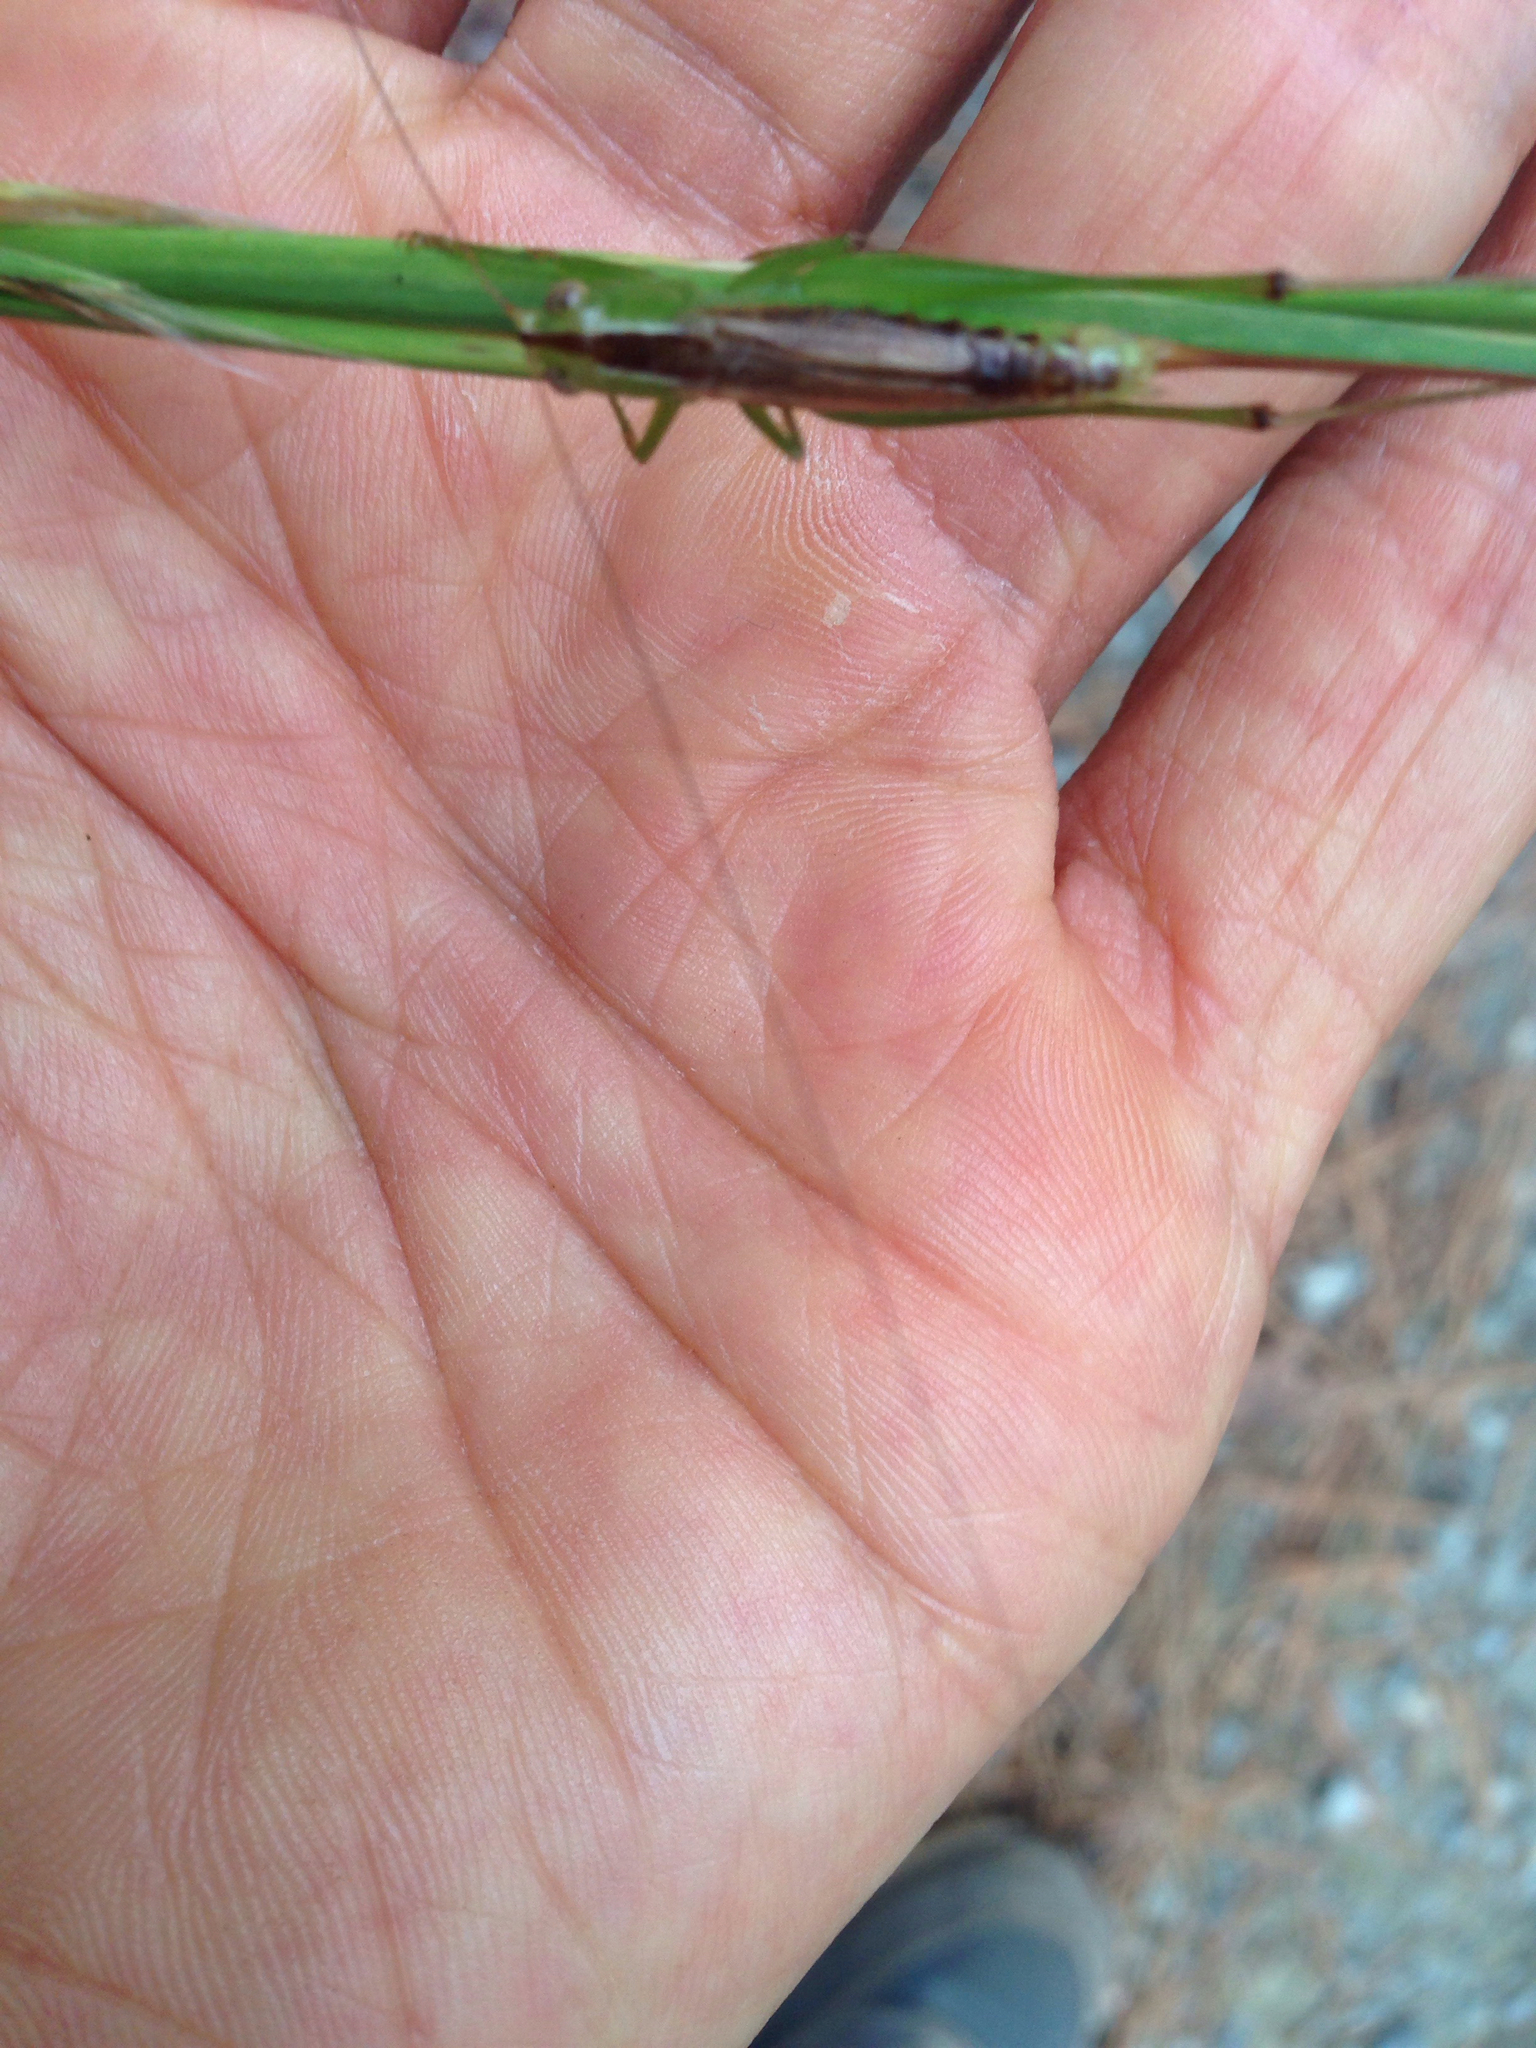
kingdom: Animalia
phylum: Arthropoda
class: Insecta
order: Orthoptera
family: Tettigoniidae
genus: Conocephalus
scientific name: Conocephalus brevipennis
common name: Short-winged meadow katydid
